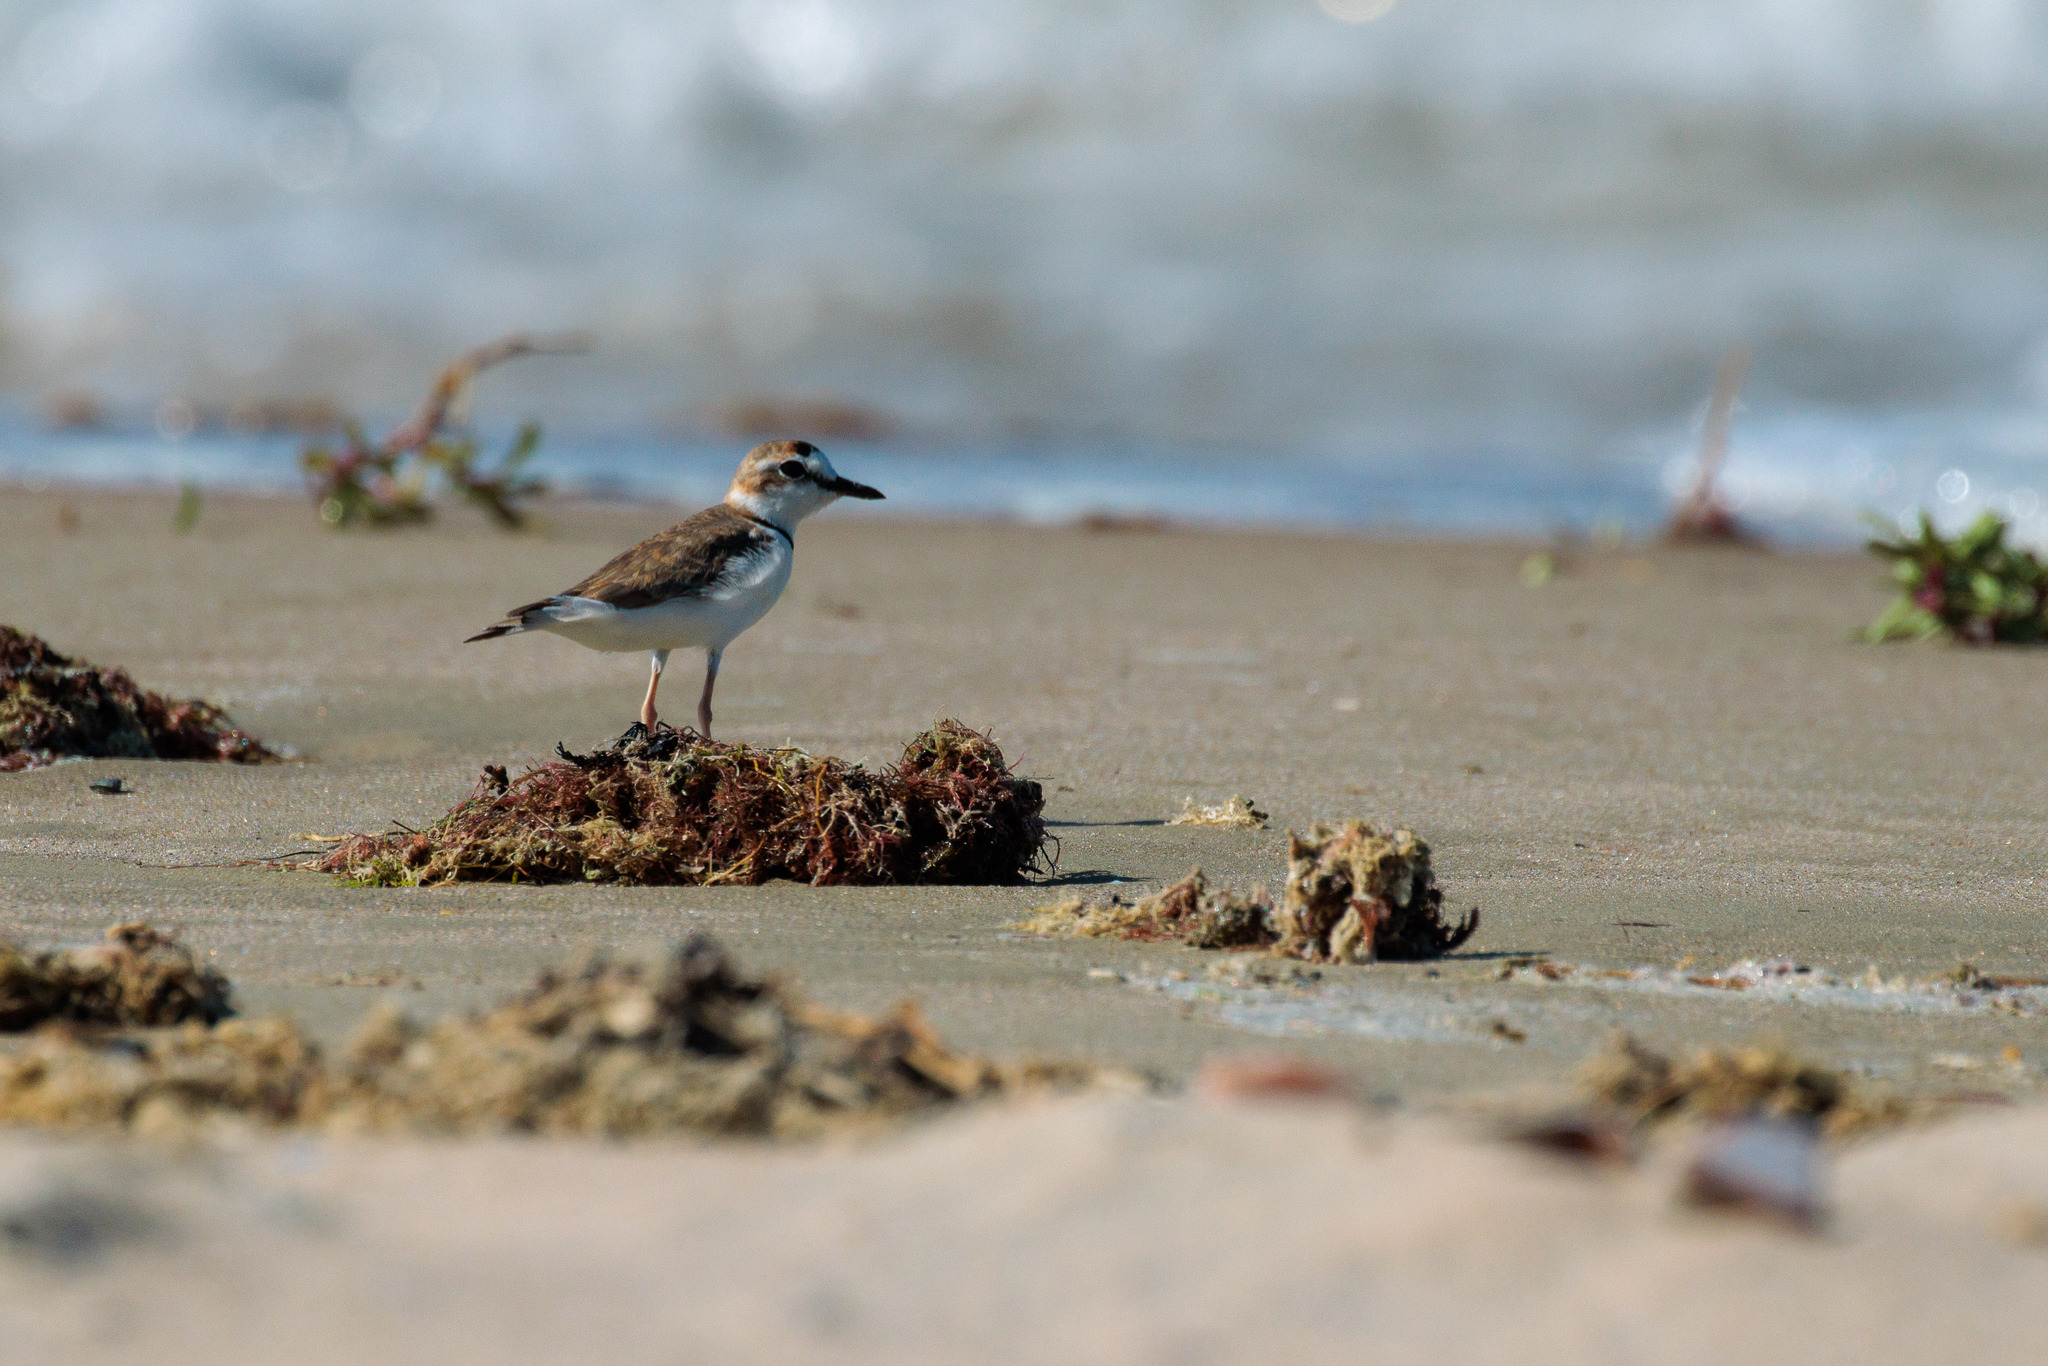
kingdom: Animalia
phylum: Chordata
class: Aves
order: Charadriiformes
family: Charadriidae
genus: Anarhynchus
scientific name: Anarhynchus
